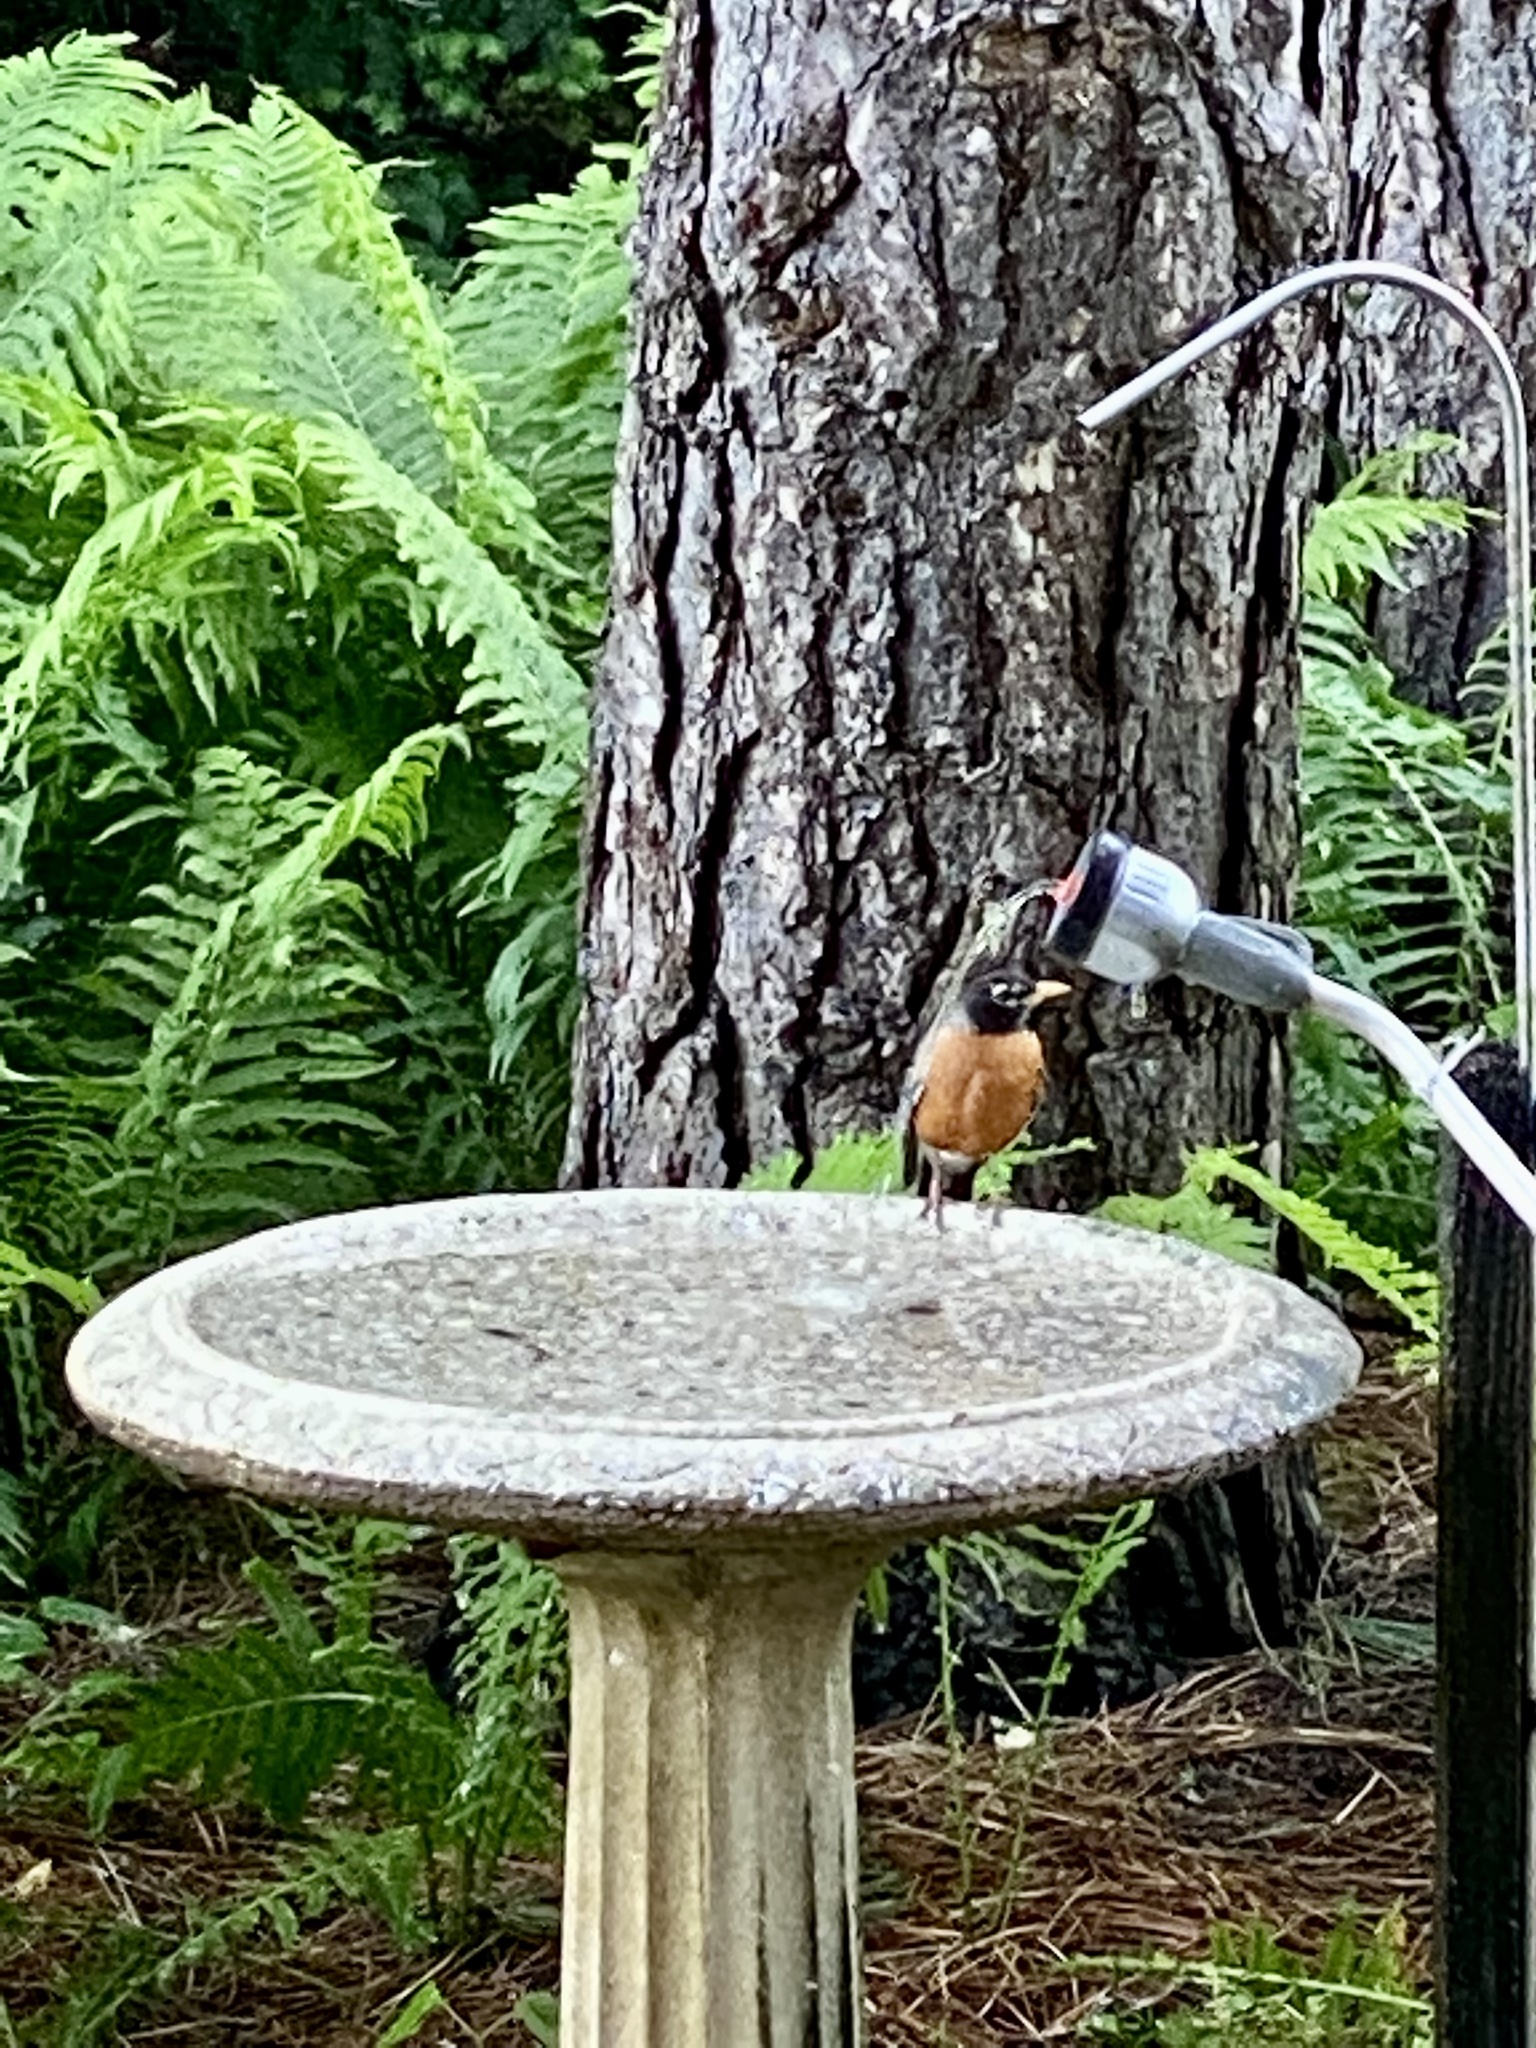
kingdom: Animalia
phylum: Chordata
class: Aves
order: Passeriformes
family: Turdidae
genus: Turdus
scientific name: Turdus migratorius
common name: American robin
